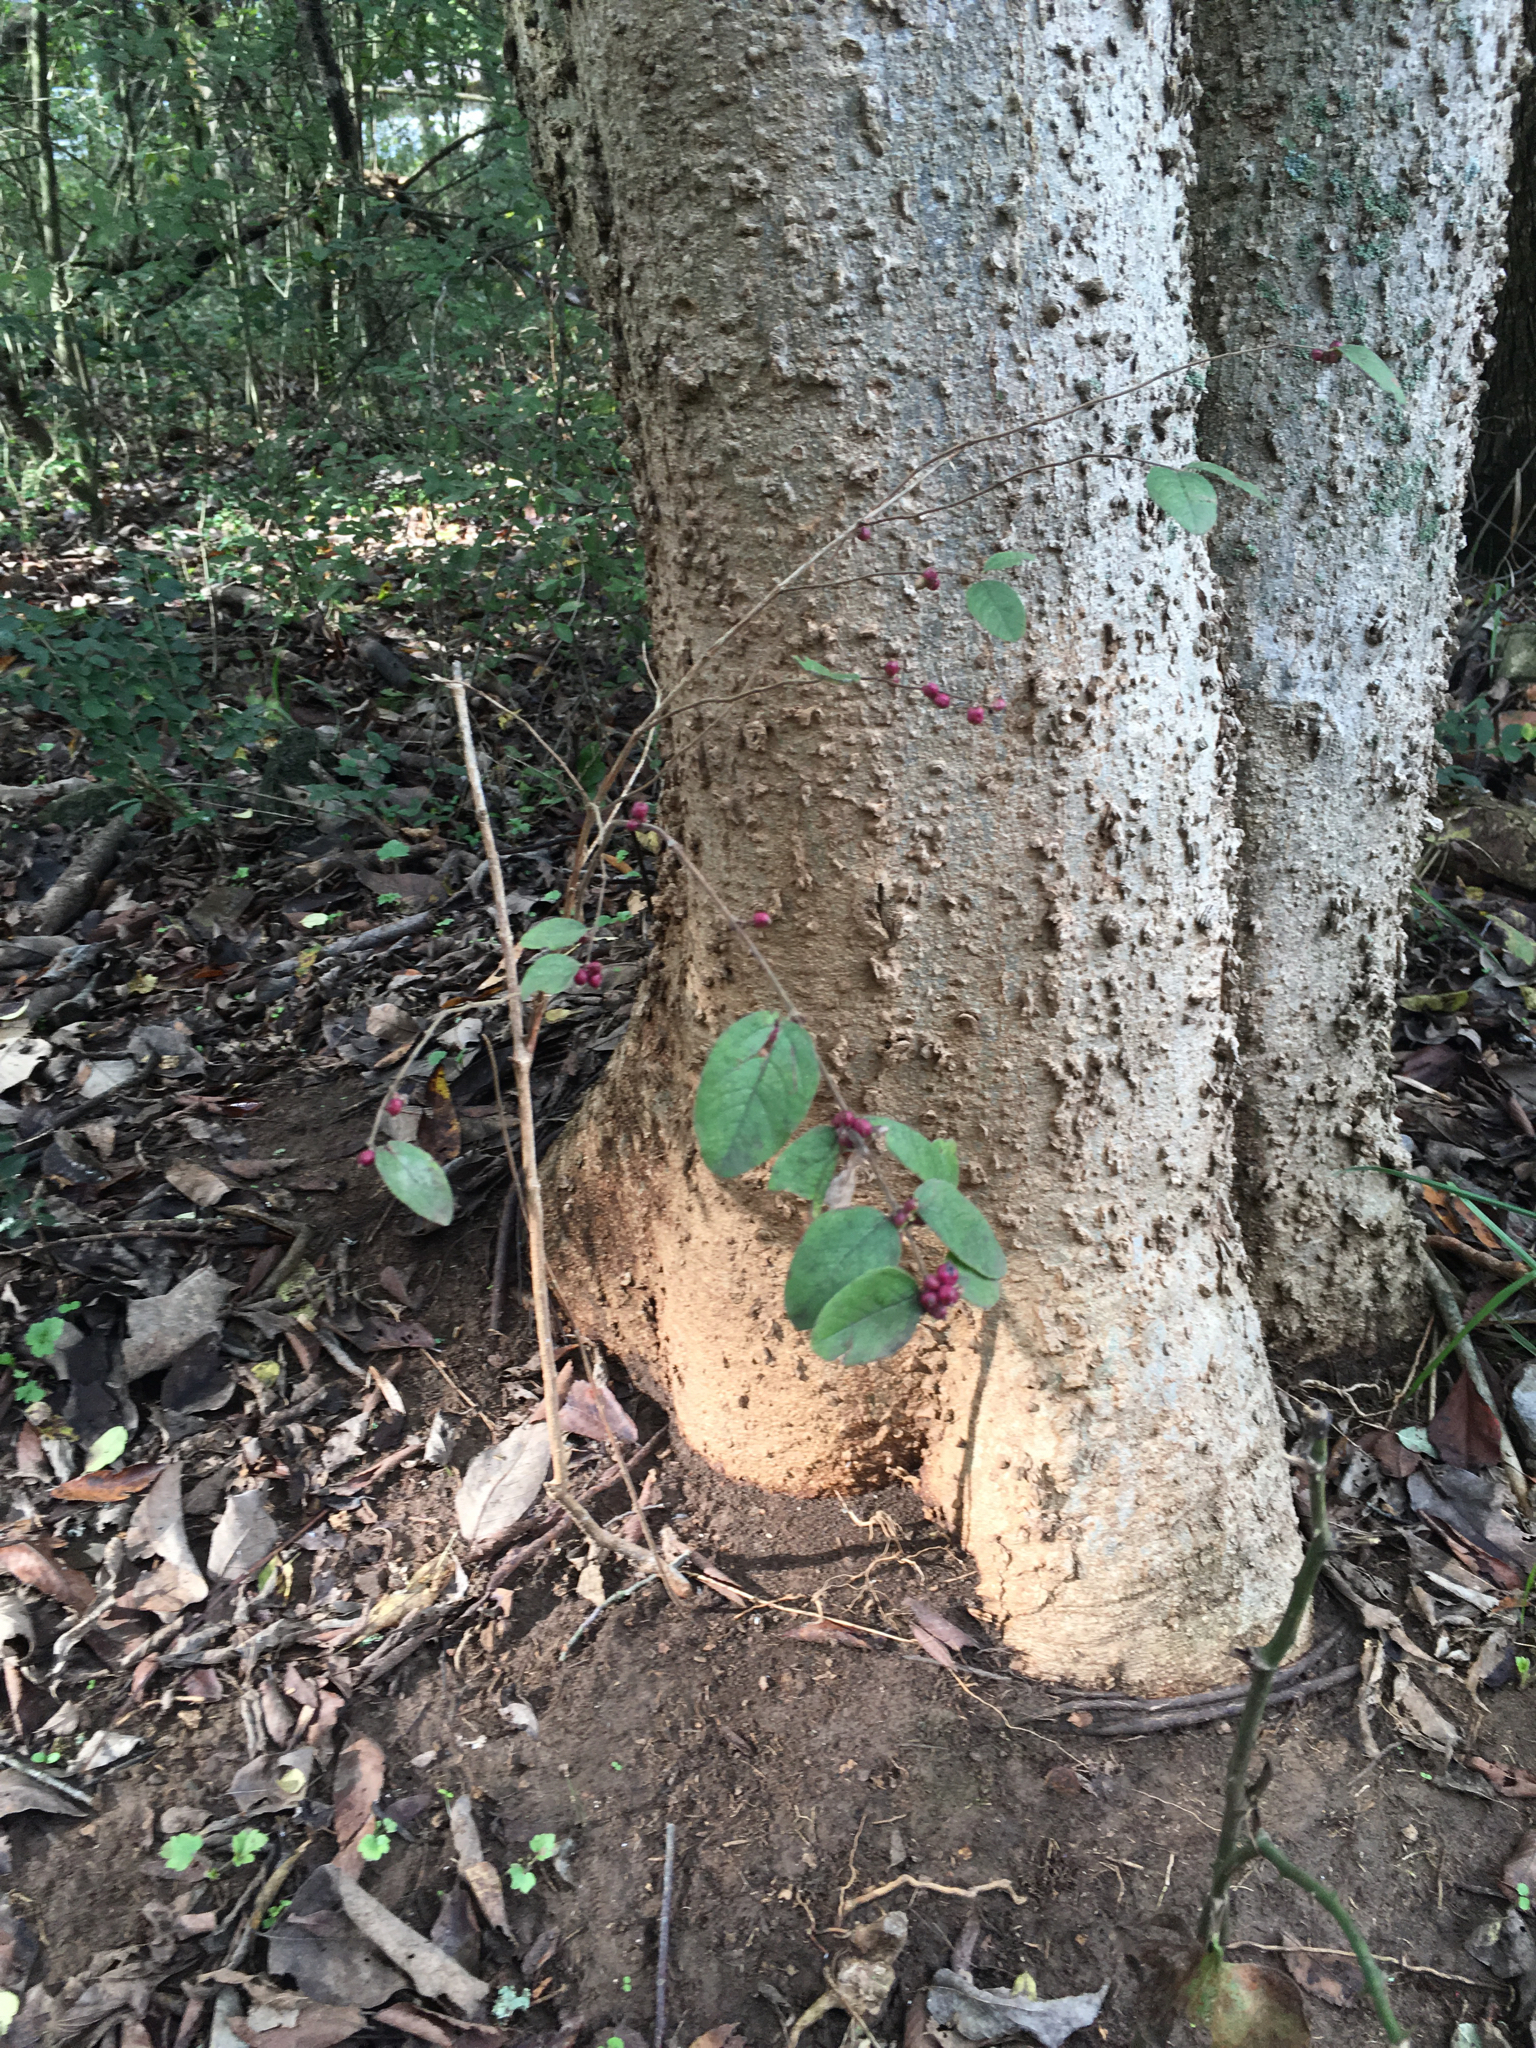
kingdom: Plantae
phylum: Tracheophyta
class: Magnoliopsida
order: Dipsacales
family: Caprifoliaceae
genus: Symphoricarpos
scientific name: Symphoricarpos orbiculatus
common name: Coralberry
